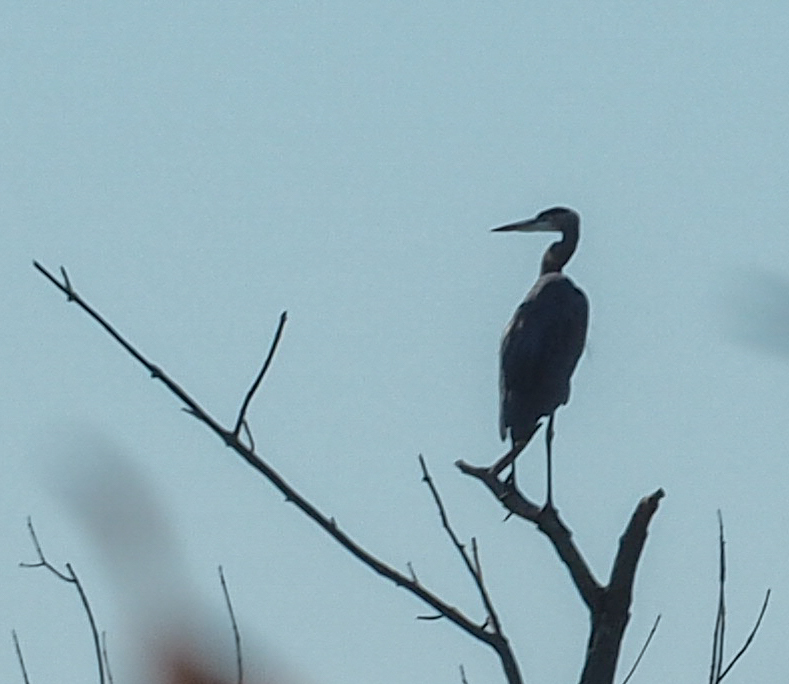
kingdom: Animalia
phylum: Chordata
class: Aves
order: Pelecaniformes
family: Ardeidae
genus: Ardea
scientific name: Ardea herodias
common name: Great blue heron
